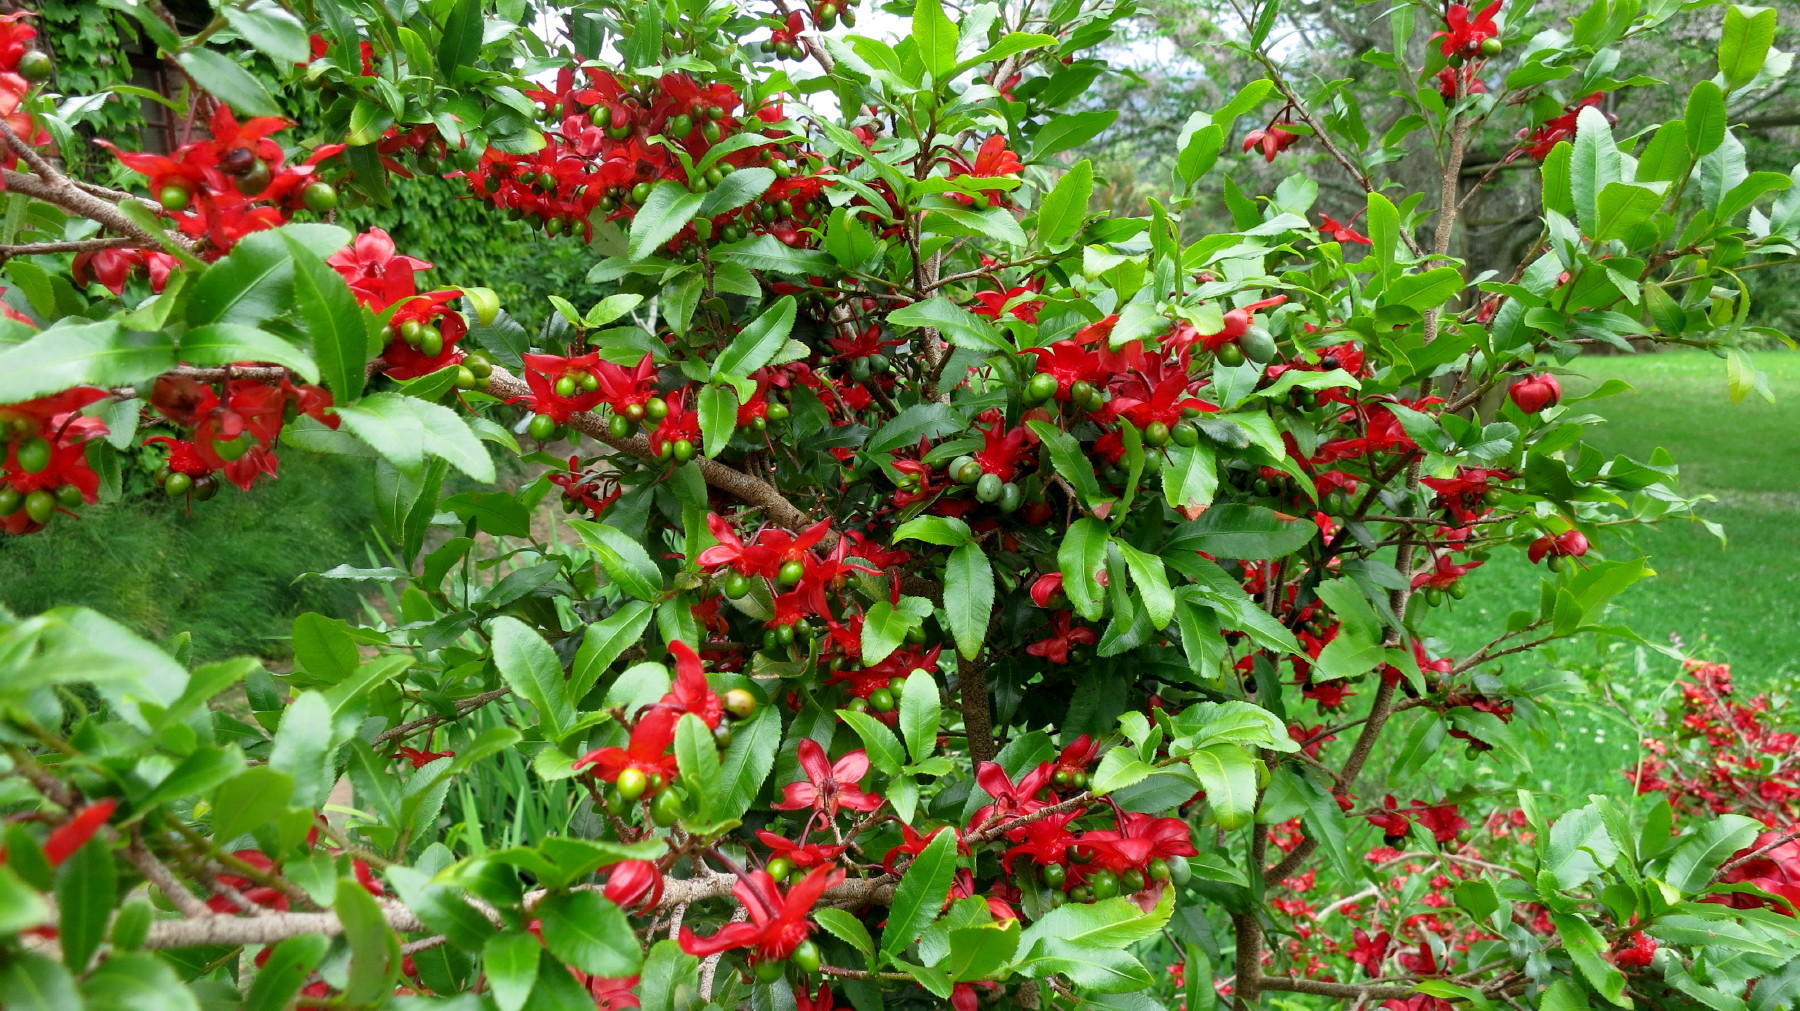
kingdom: Plantae
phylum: Tracheophyta
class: Magnoliopsida
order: Malpighiales
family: Ochnaceae
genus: Ochna
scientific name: Ochna serrulata
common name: Mickey mouse plant
